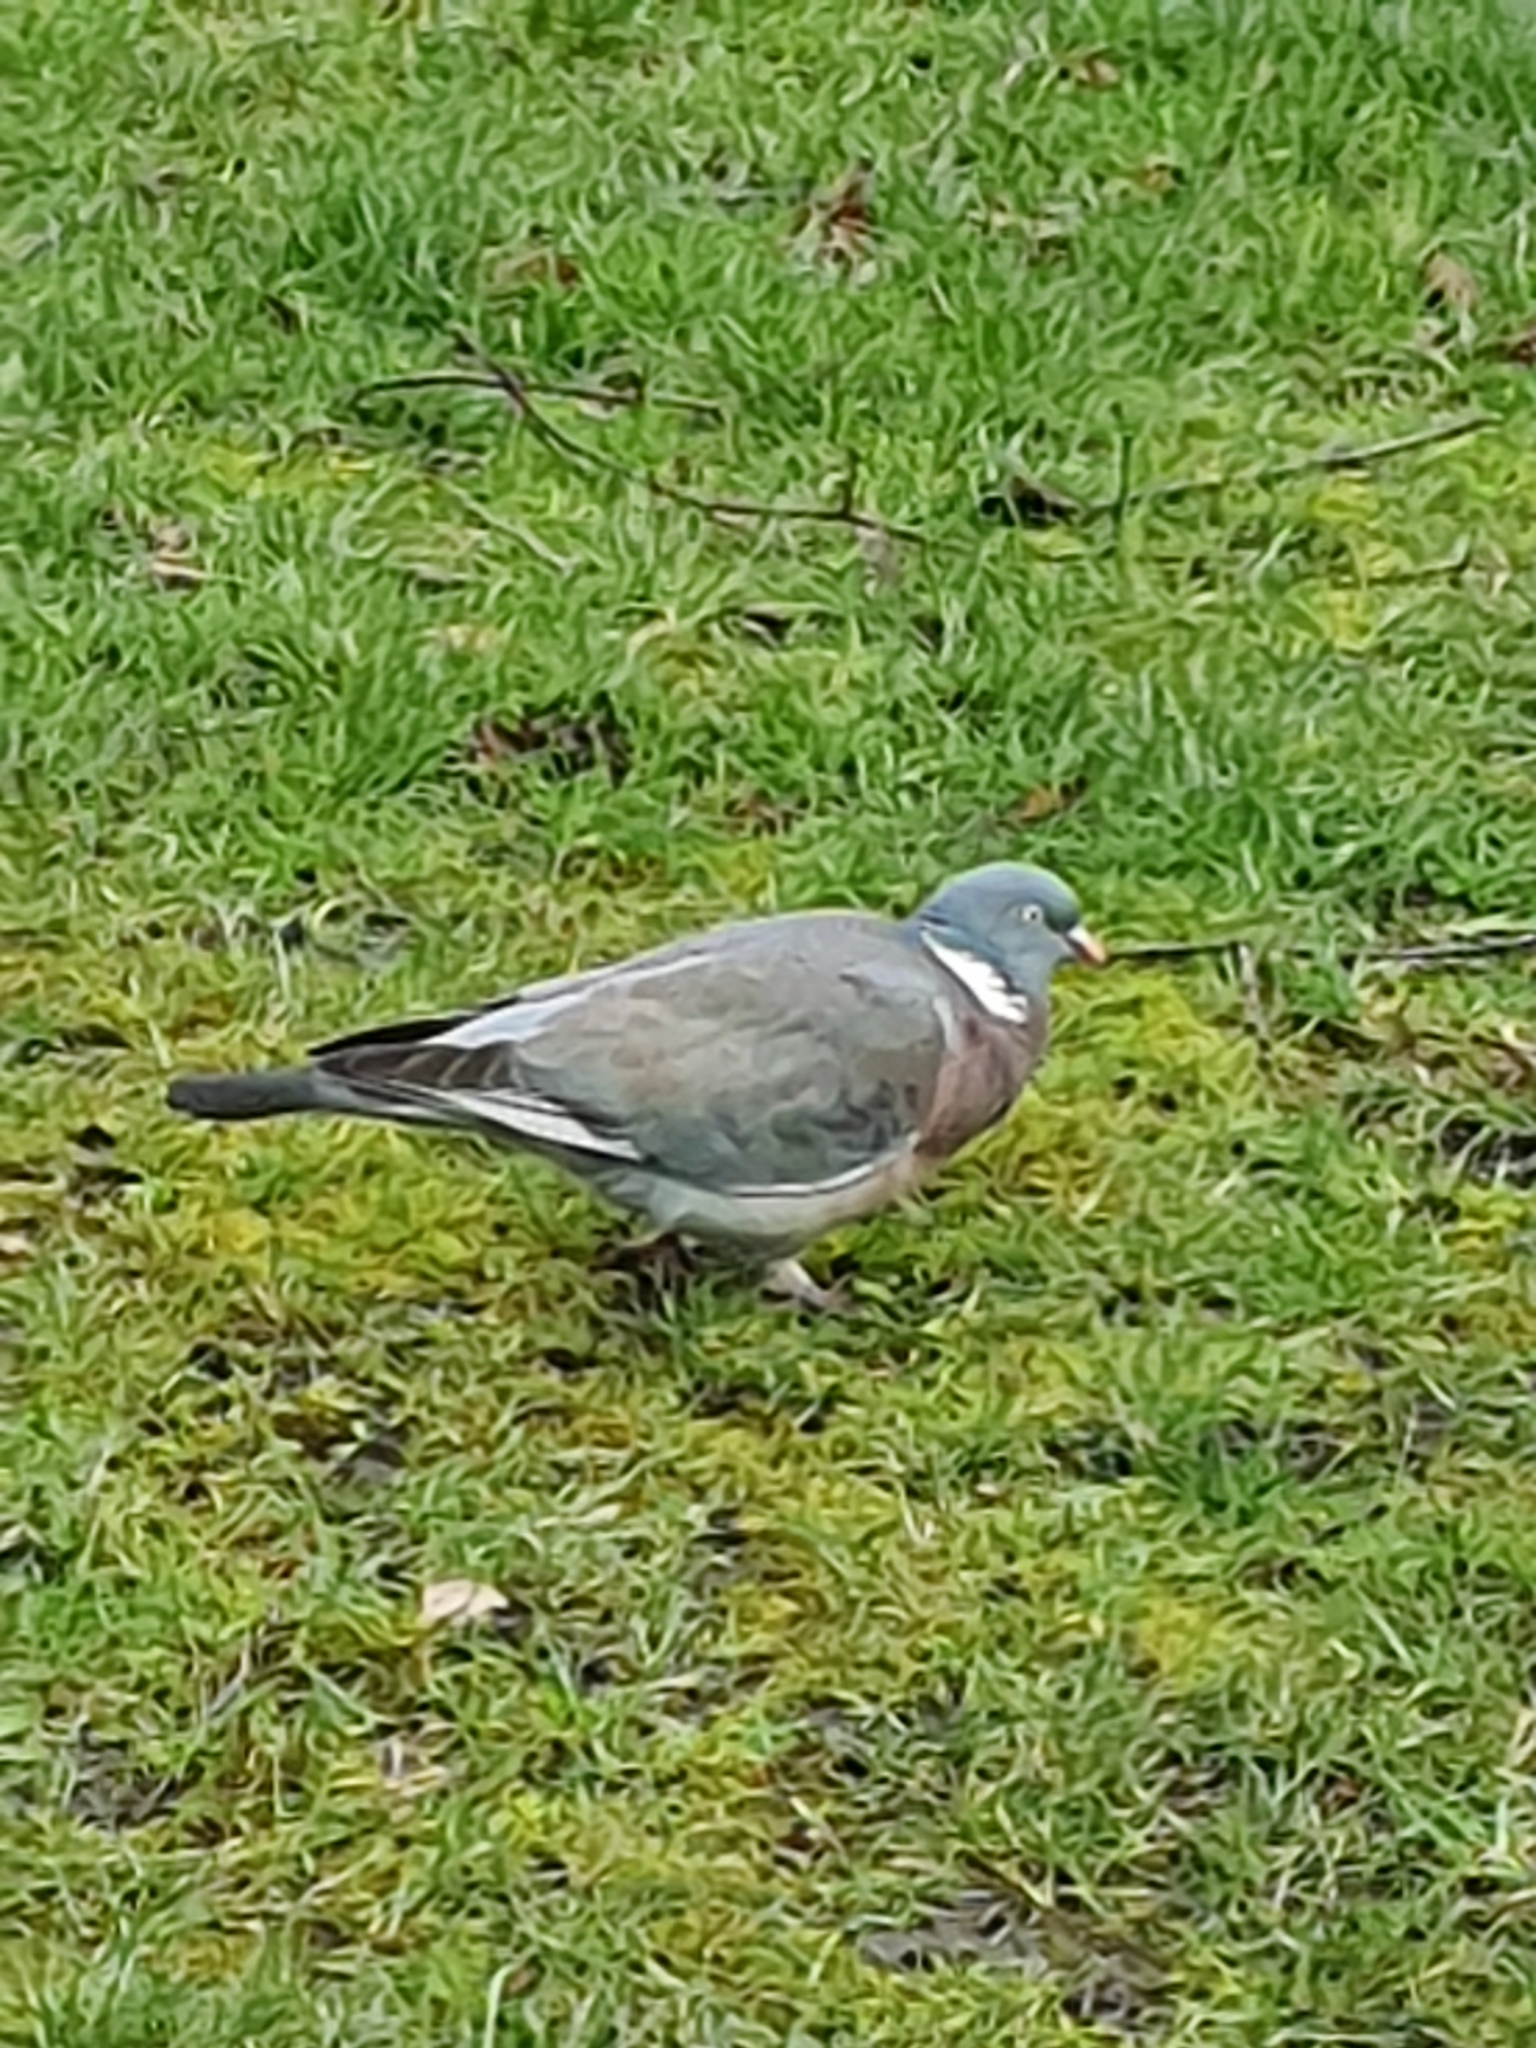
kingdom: Animalia
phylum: Chordata
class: Aves
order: Columbiformes
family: Columbidae
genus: Columba
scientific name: Columba palumbus
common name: Common wood pigeon
